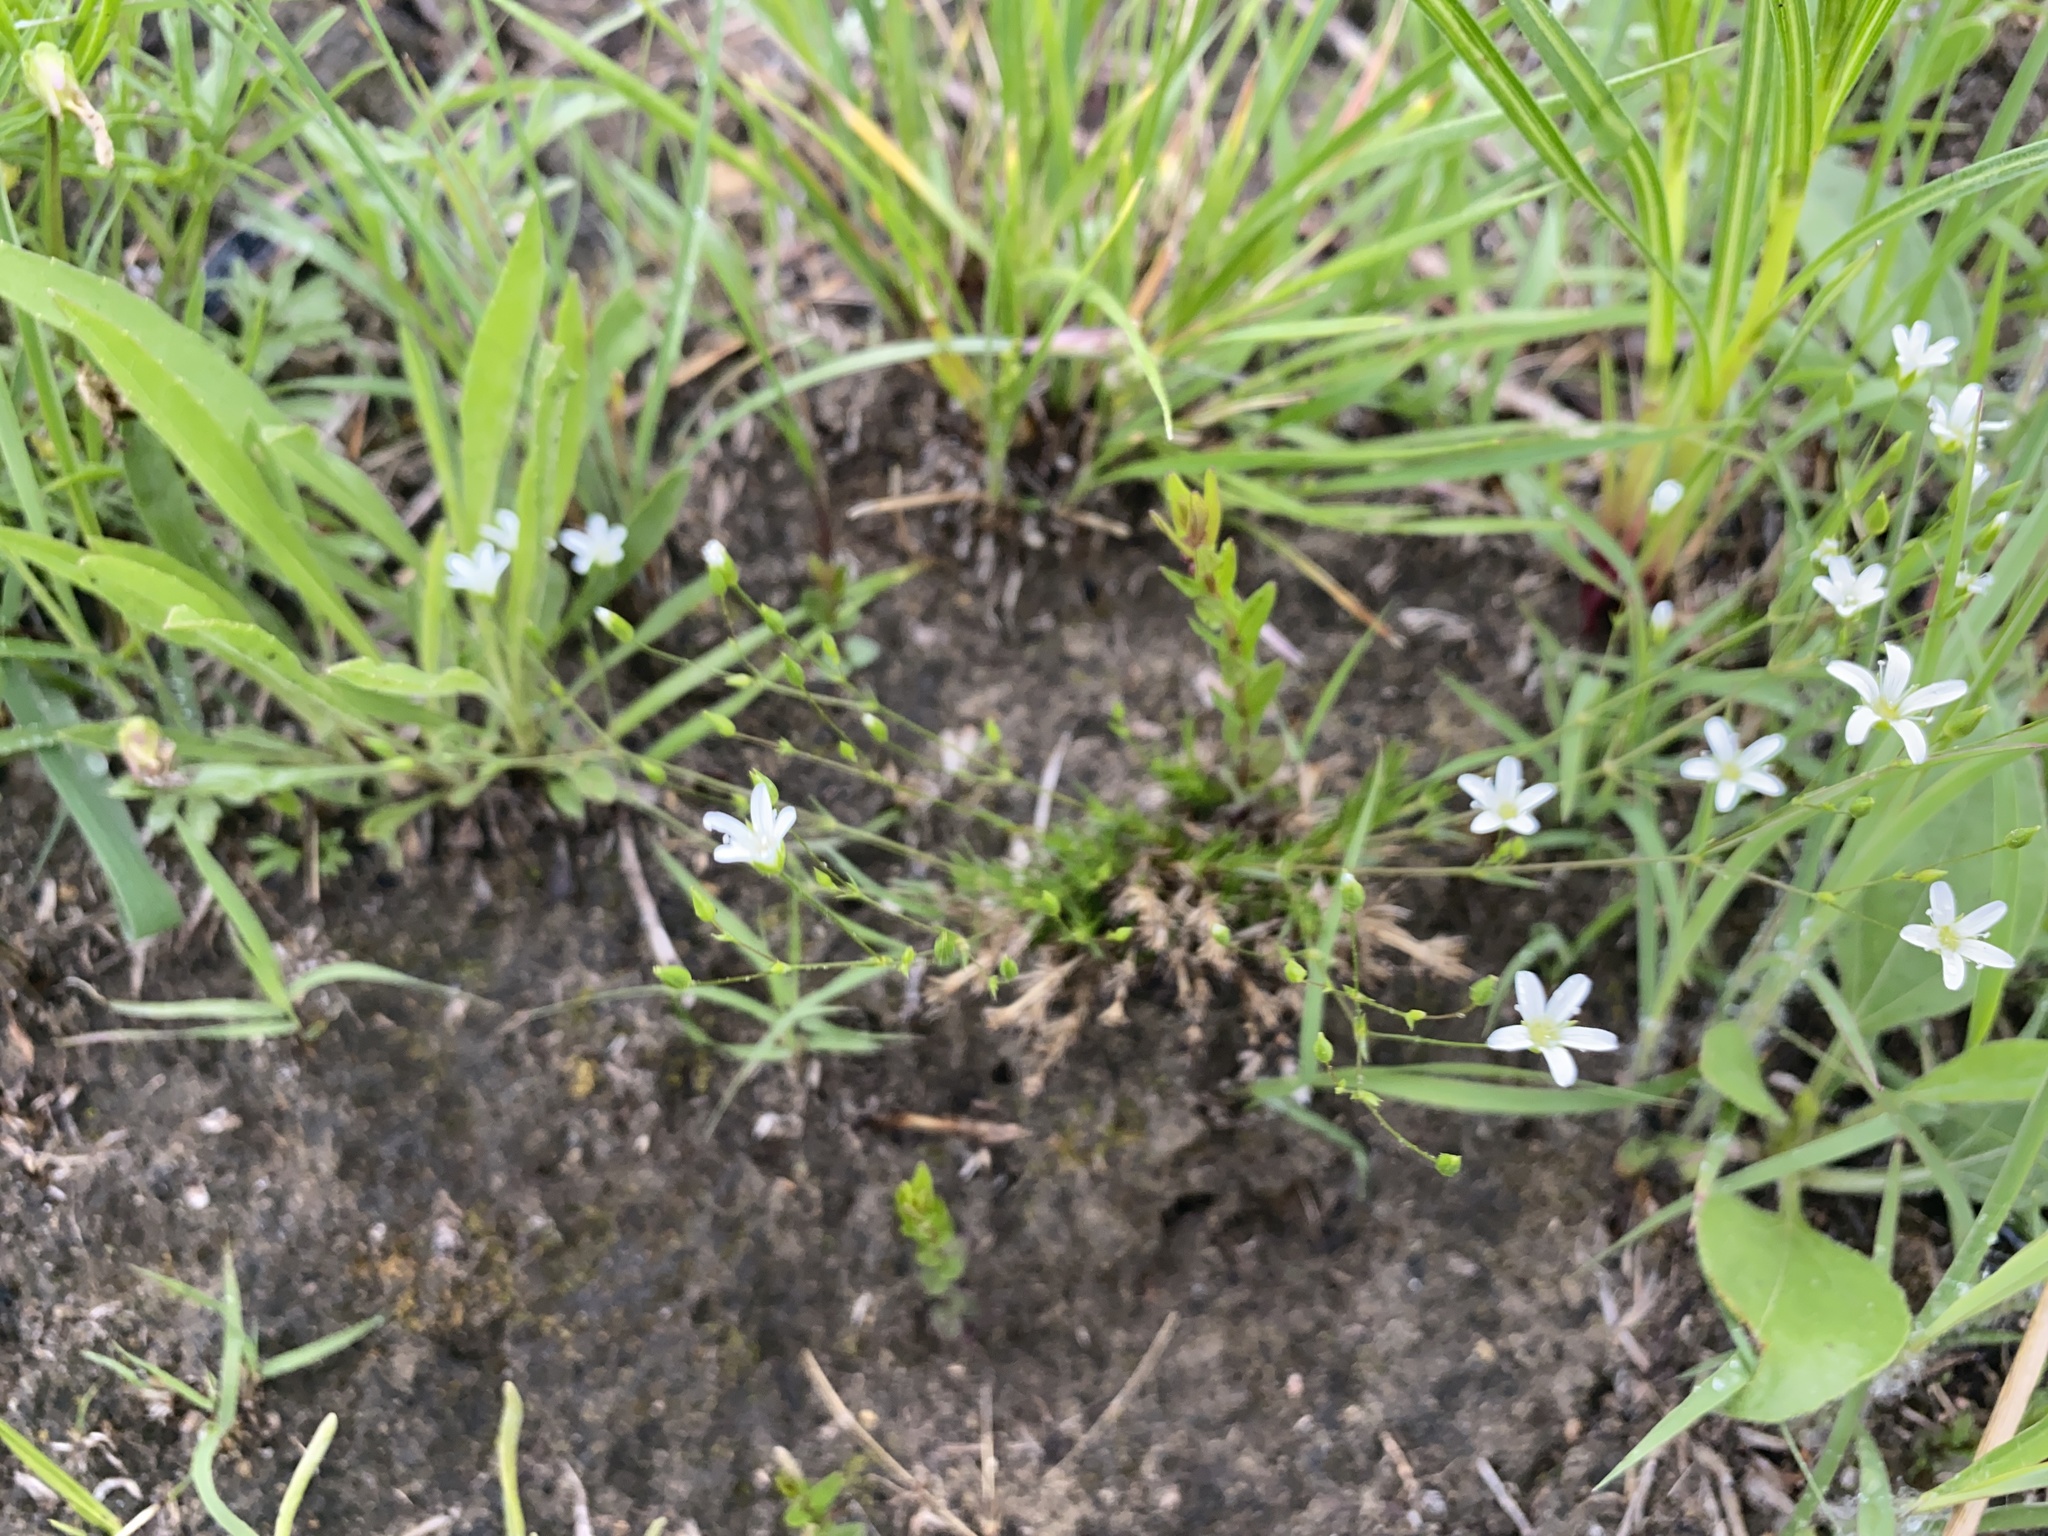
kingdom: Plantae
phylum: Tracheophyta
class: Magnoliopsida
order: Caryophyllales
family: Caryophyllaceae
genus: Sabulina
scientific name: Sabulina michauxii
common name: Michaux's stitchwort
